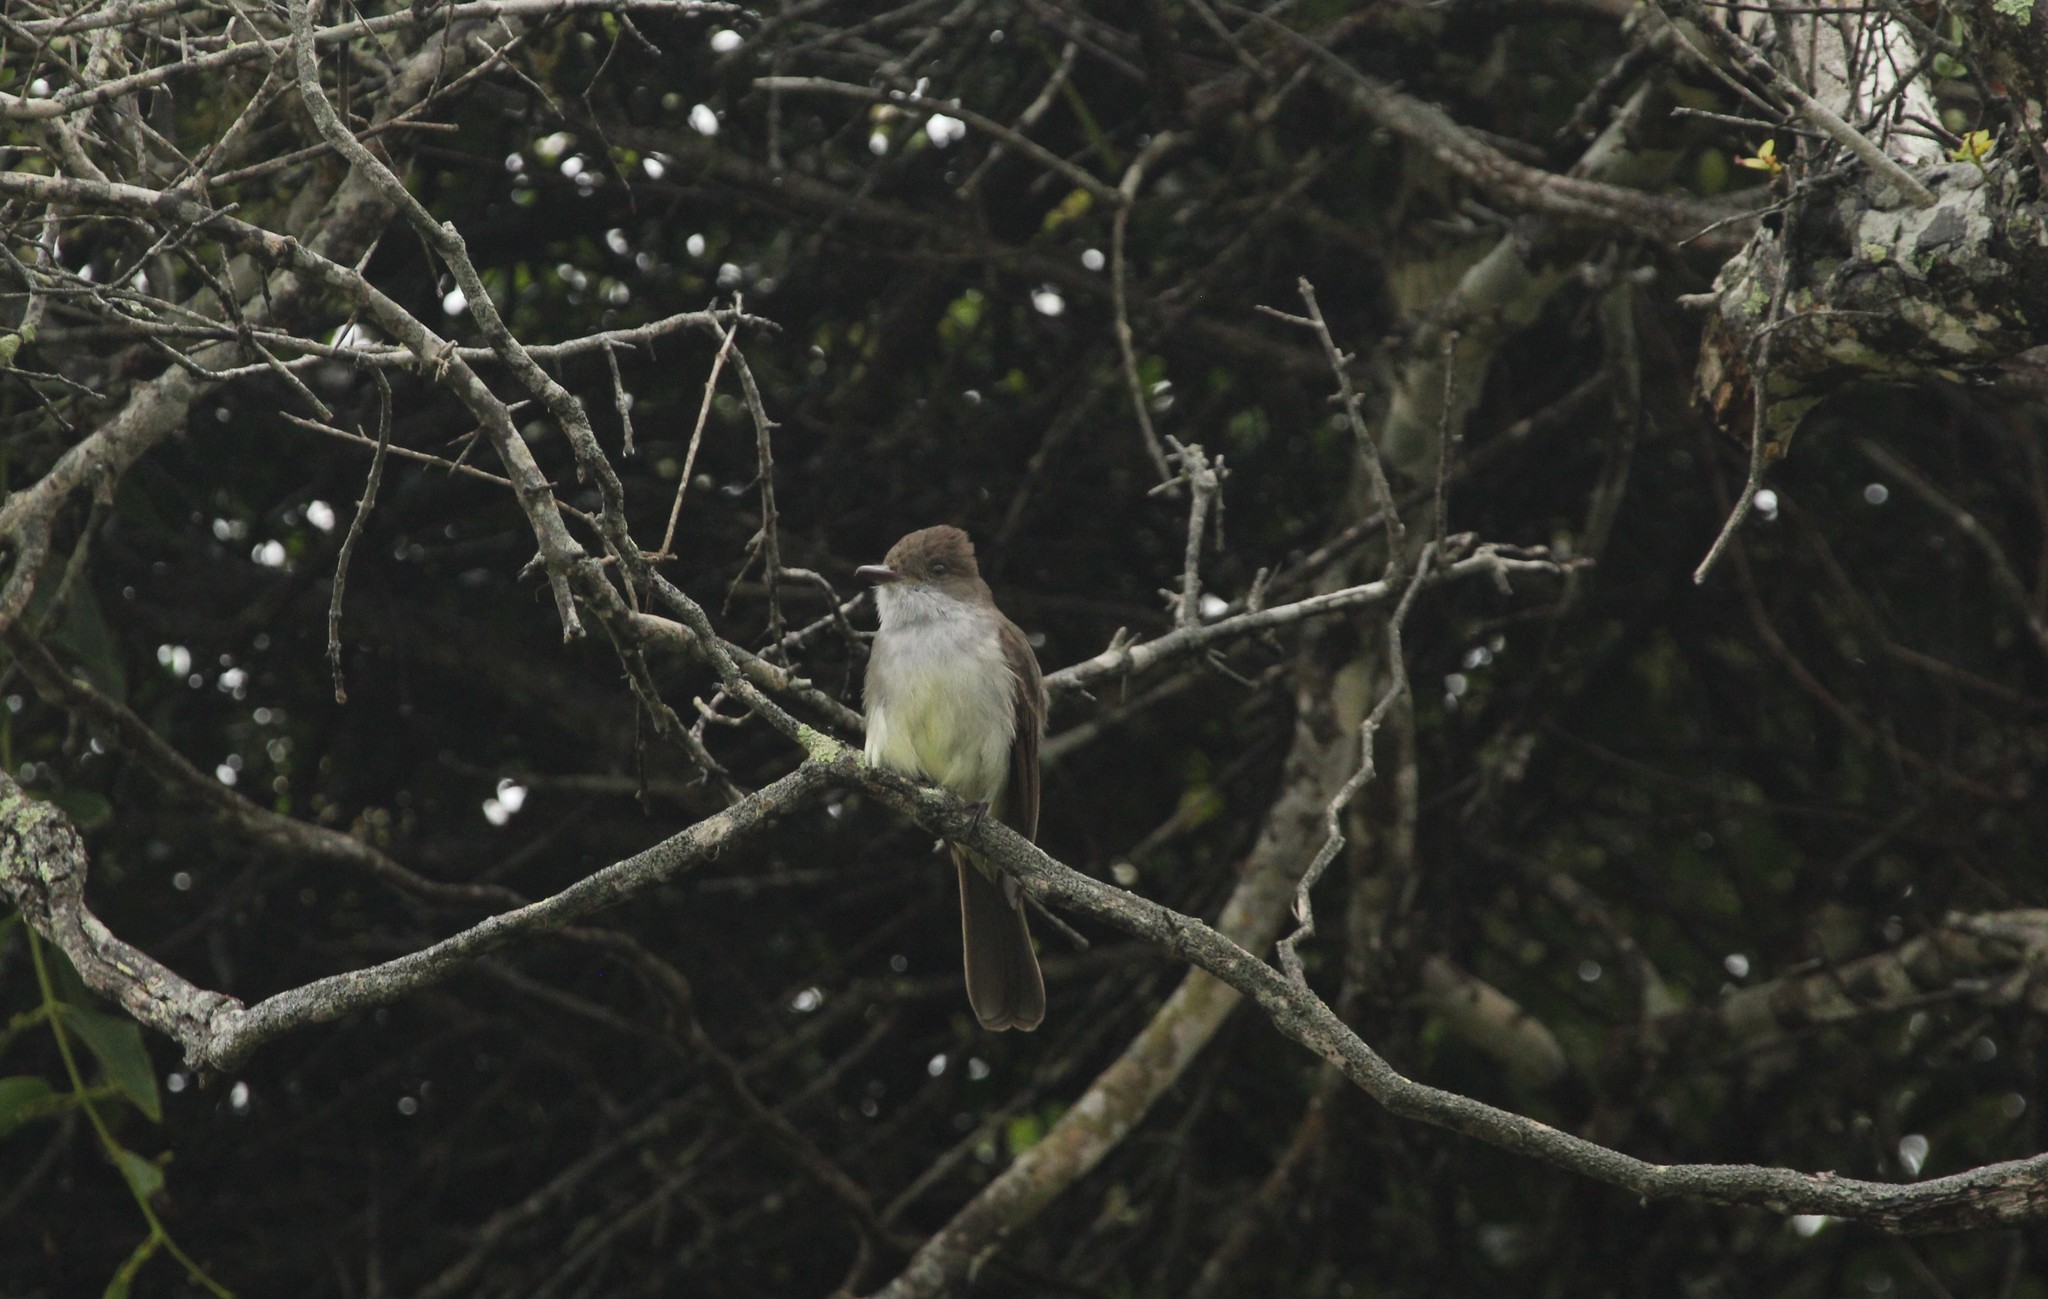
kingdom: Animalia
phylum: Chordata
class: Aves
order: Passeriformes
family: Tyrannidae
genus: Myiarchus
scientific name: Myiarchus swainsoni
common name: Swainson's flycatcher
